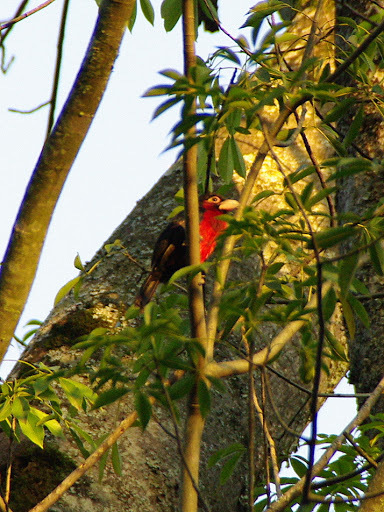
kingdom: Animalia
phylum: Chordata
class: Aves
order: Piciformes
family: Lybiidae
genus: Lybius
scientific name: Lybius bidentatus
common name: Double-toothed barbet
